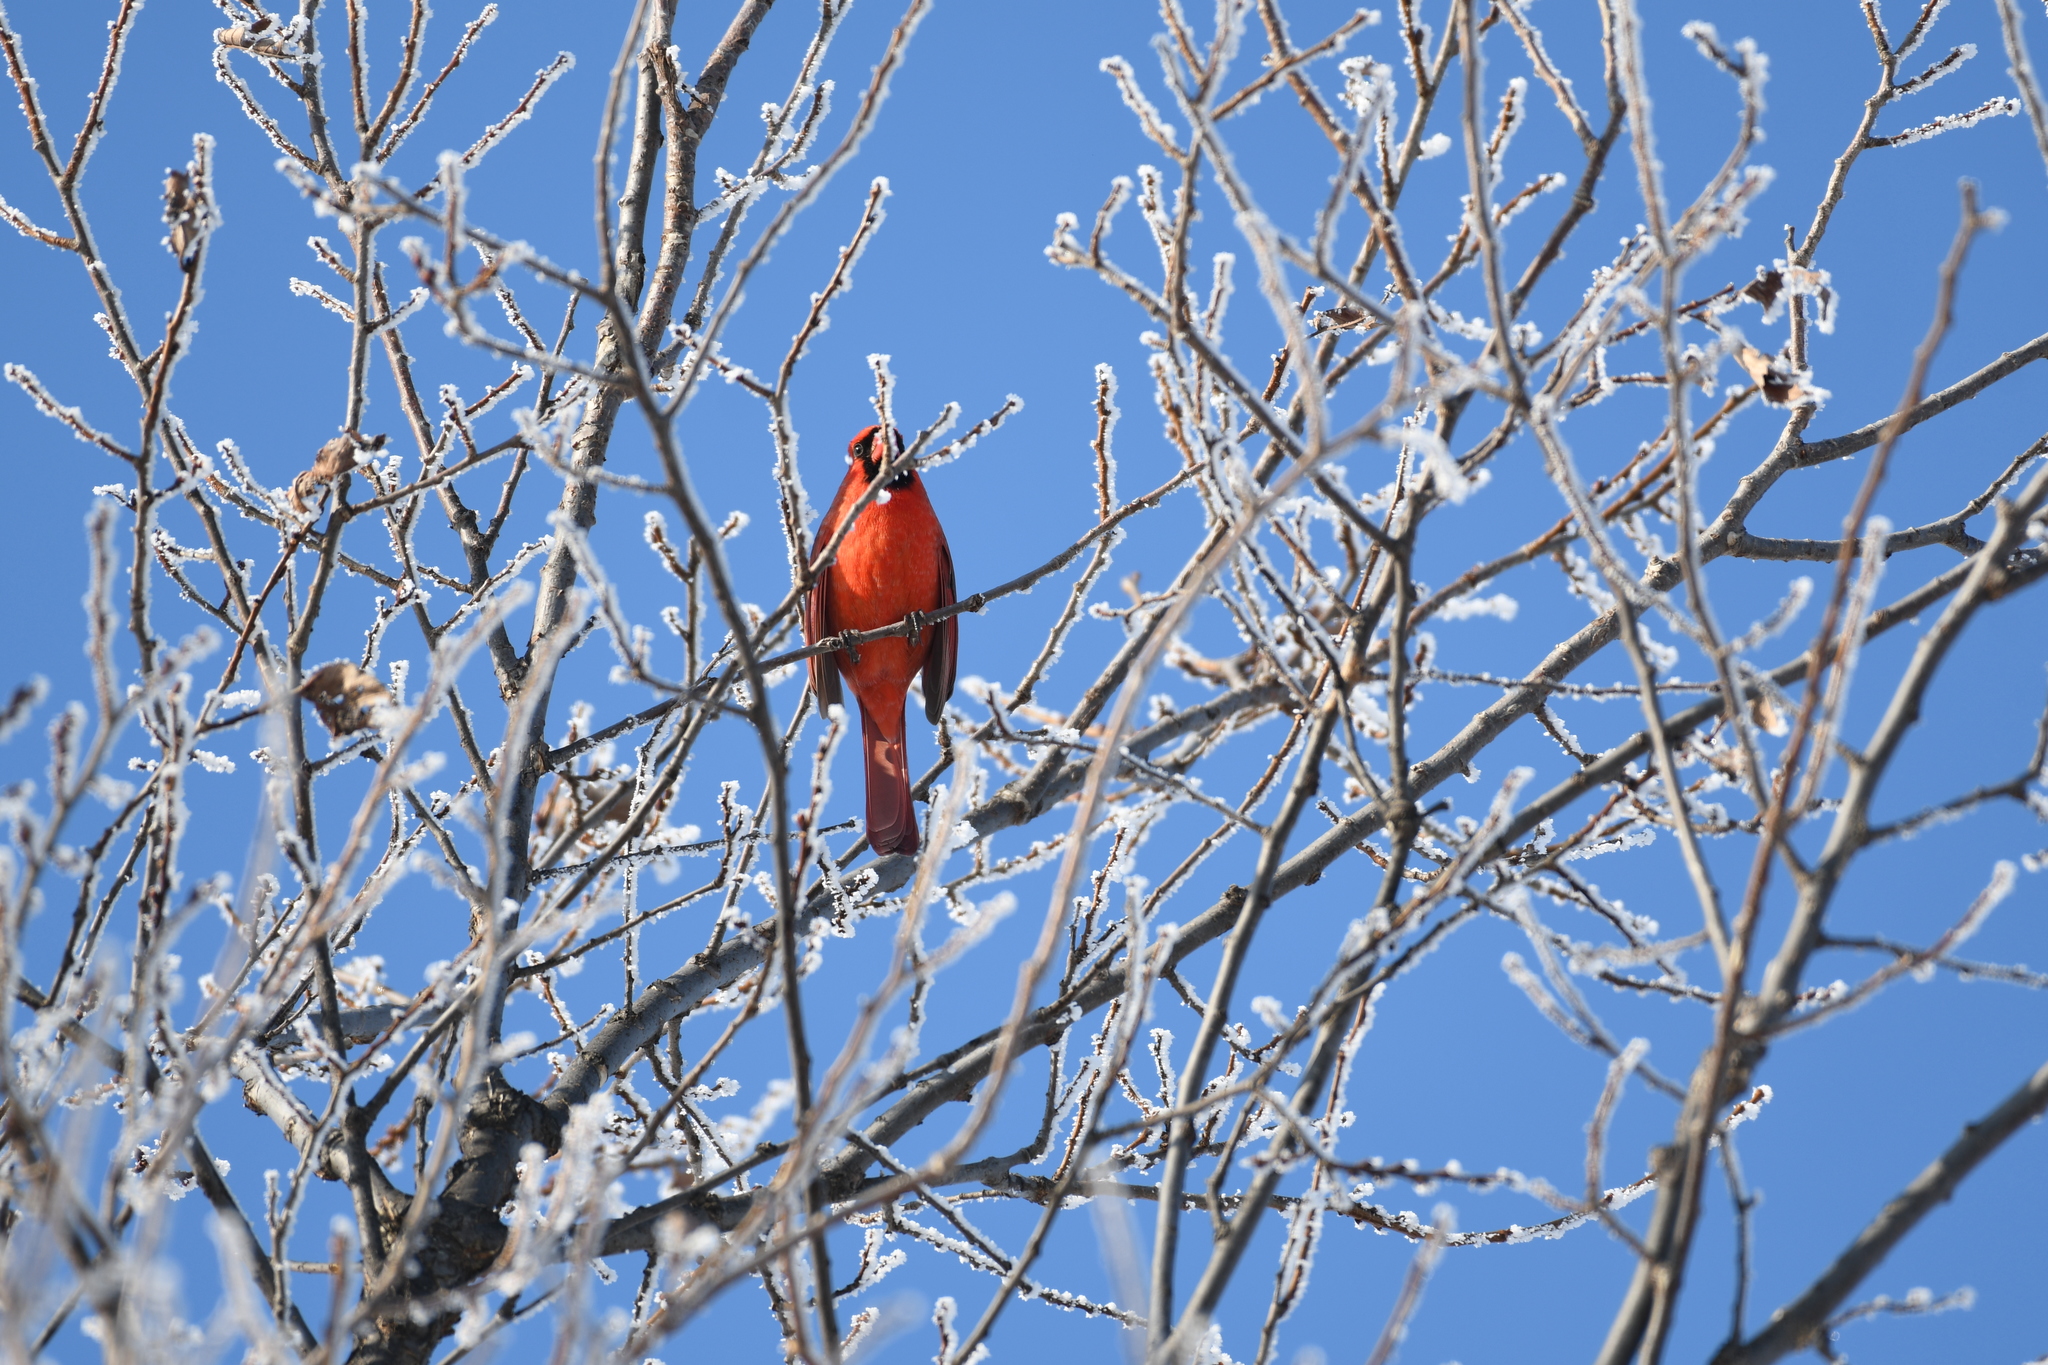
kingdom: Animalia
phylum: Chordata
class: Aves
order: Passeriformes
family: Cardinalidae
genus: Cardinalis
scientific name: Cardinalis cardinalis
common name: Northern cardinal
